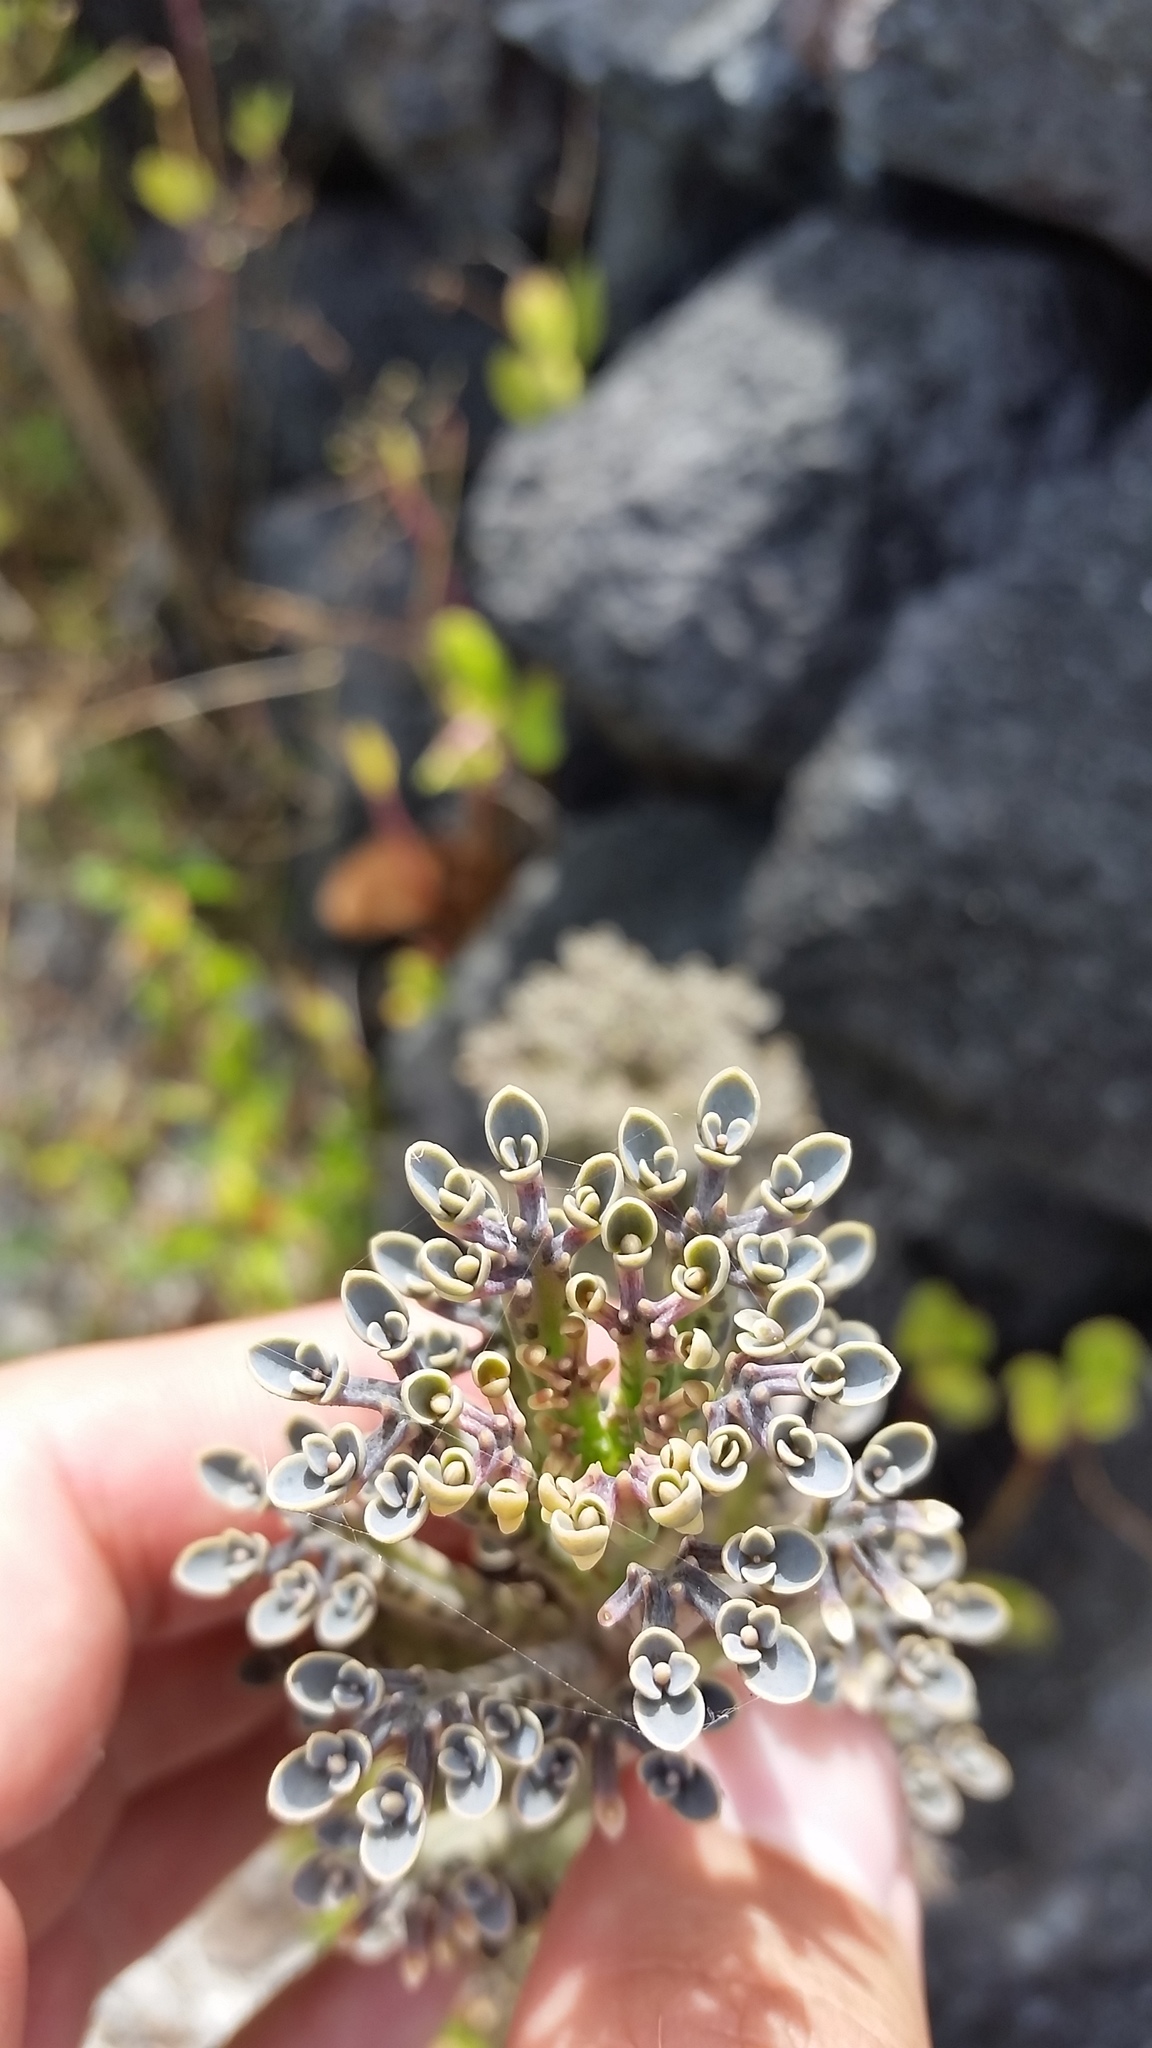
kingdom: Plantae
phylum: Tracheophyta
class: Magnoliopsida
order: Saxifragales
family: Crassulaceae
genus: Kalanchoe
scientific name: Kalanchoe delagoensis
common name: Chandelier plant
